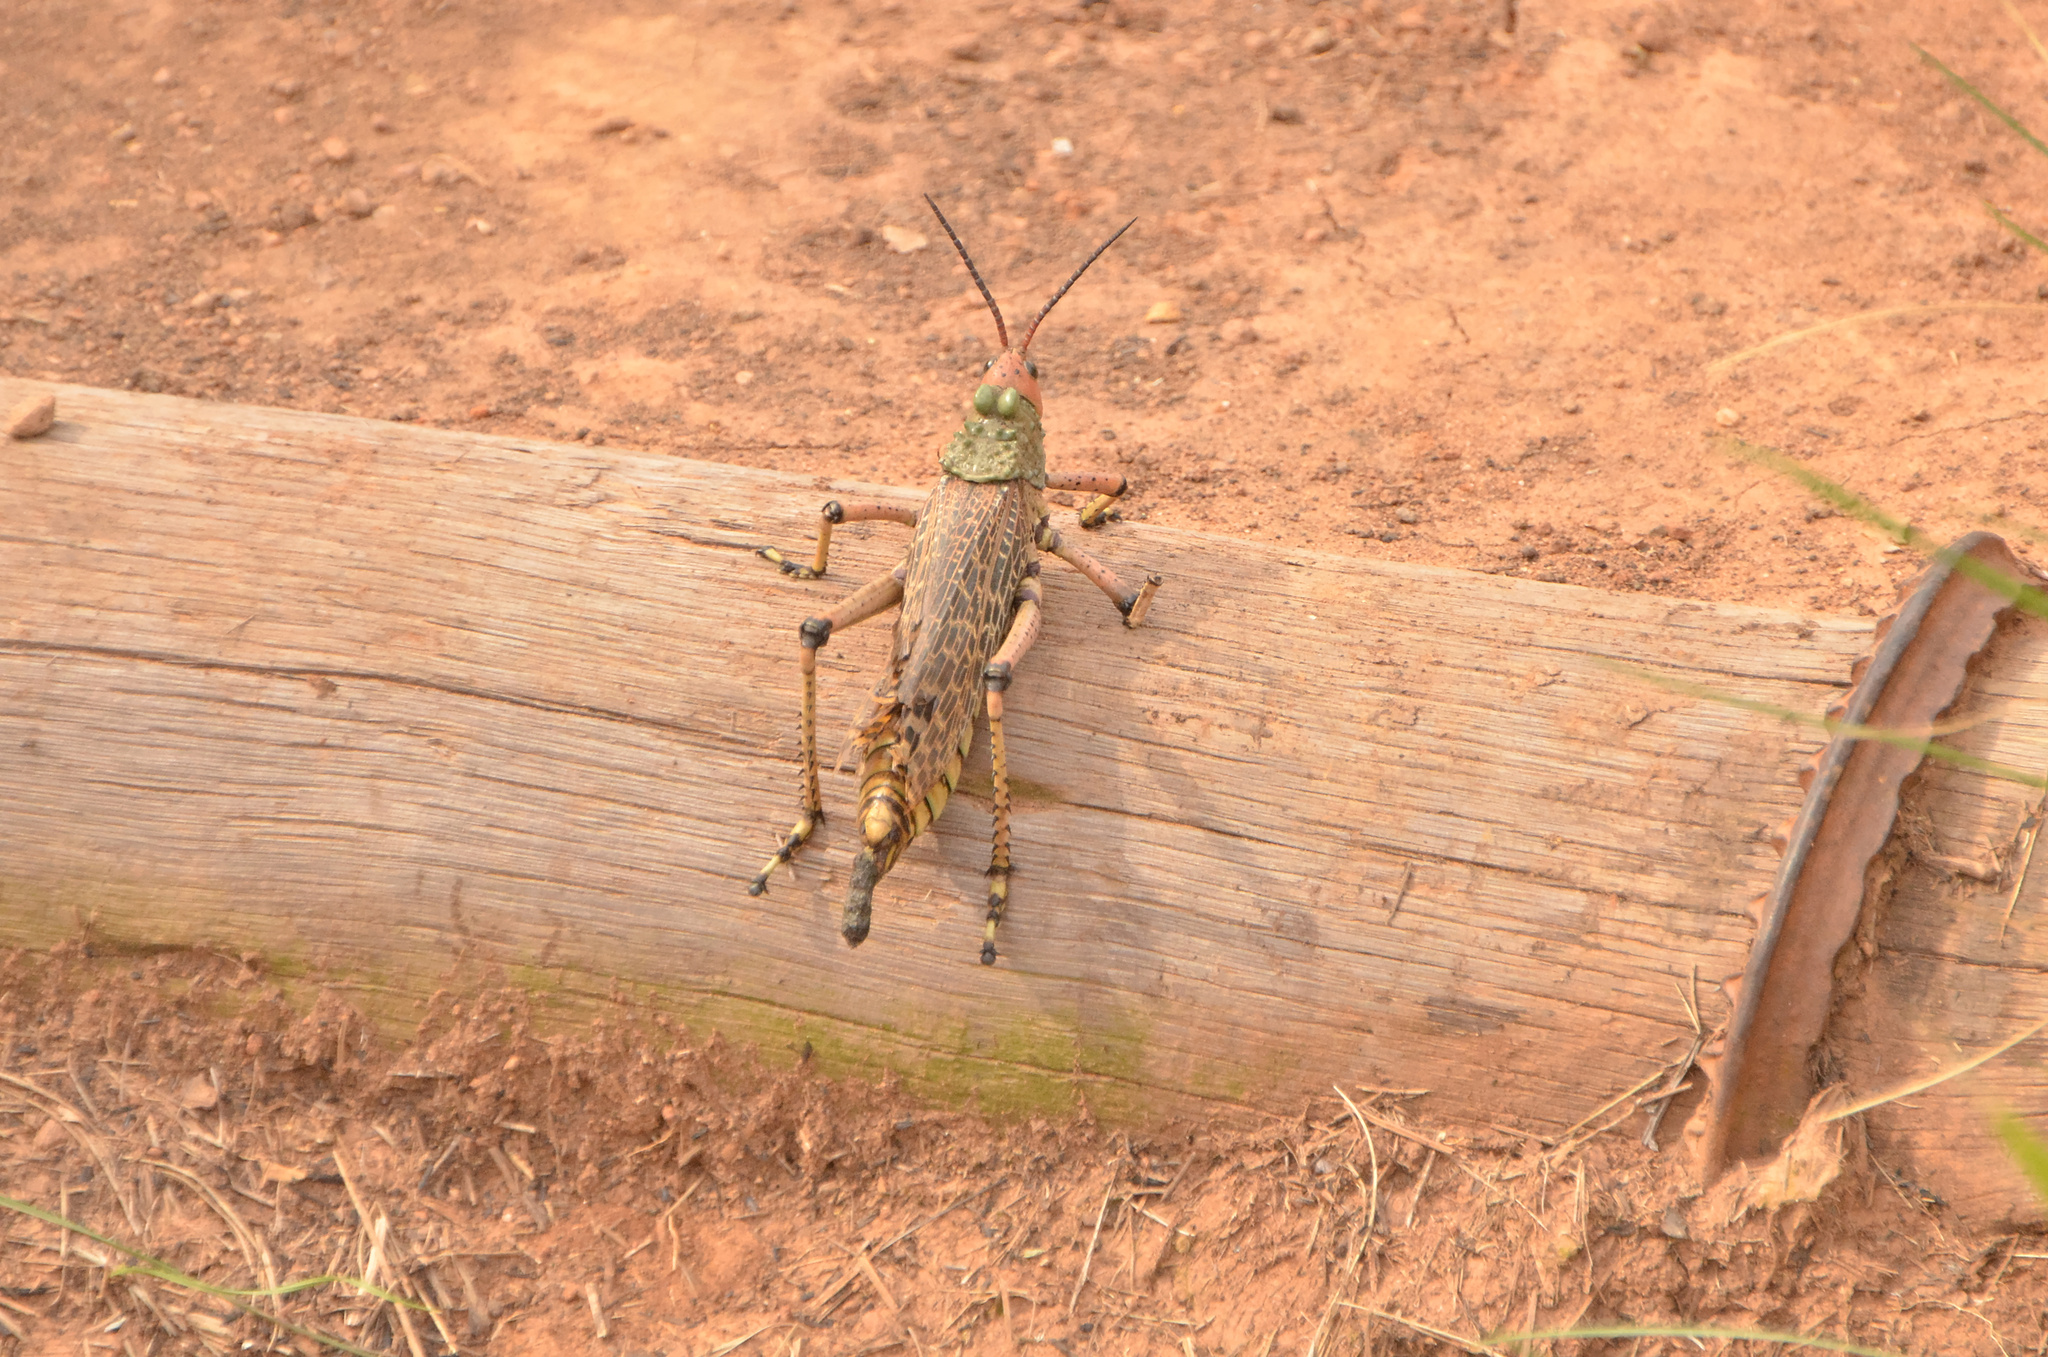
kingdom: Animalia
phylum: Arthropoda
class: Insecta
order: Orthoptera
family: Pyrgomorphidae
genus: Phymateus
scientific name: Phymateus leprosus
